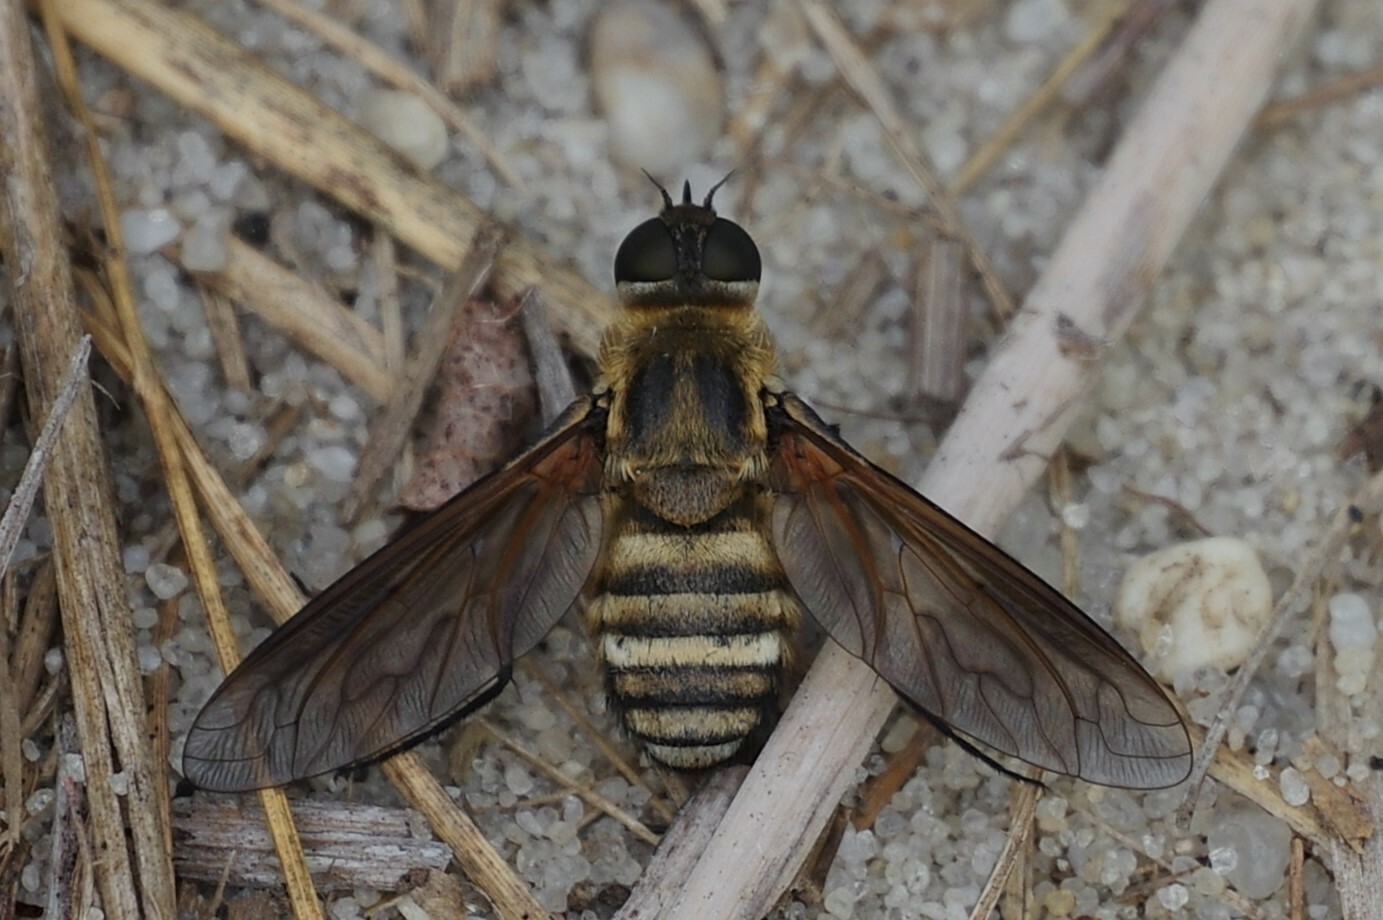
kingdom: Animalia
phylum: Arthropoda
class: Insecta
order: Diptera
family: Bombyliidae
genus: Exoprosopa
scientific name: Exoprosopa fasciata
